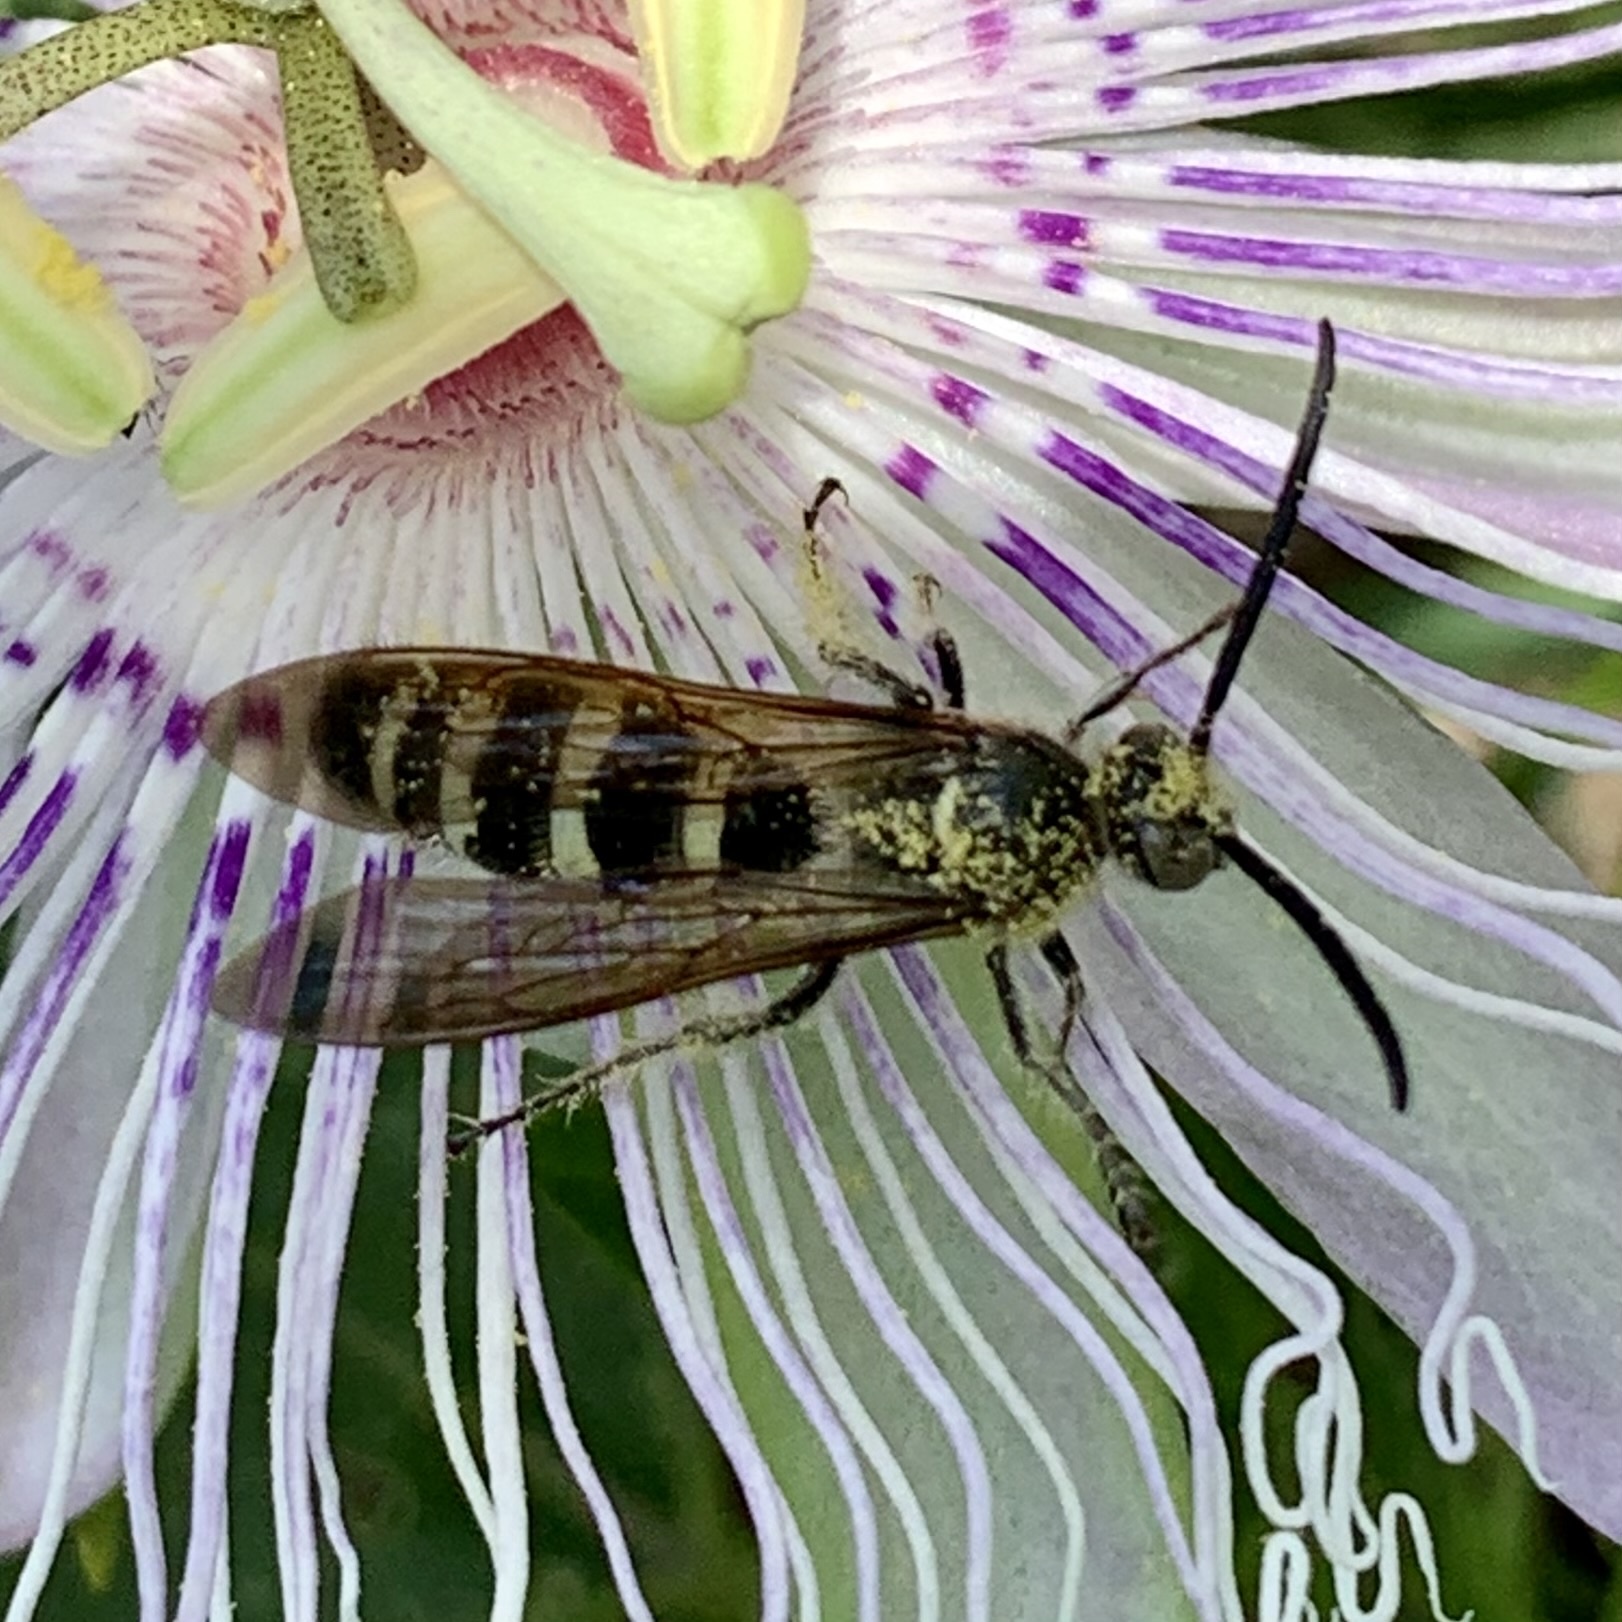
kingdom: Animalia
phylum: Arthropoda
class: Insecta
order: Hymenoptera
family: Scoliidae
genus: Dielis
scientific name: Dielis
